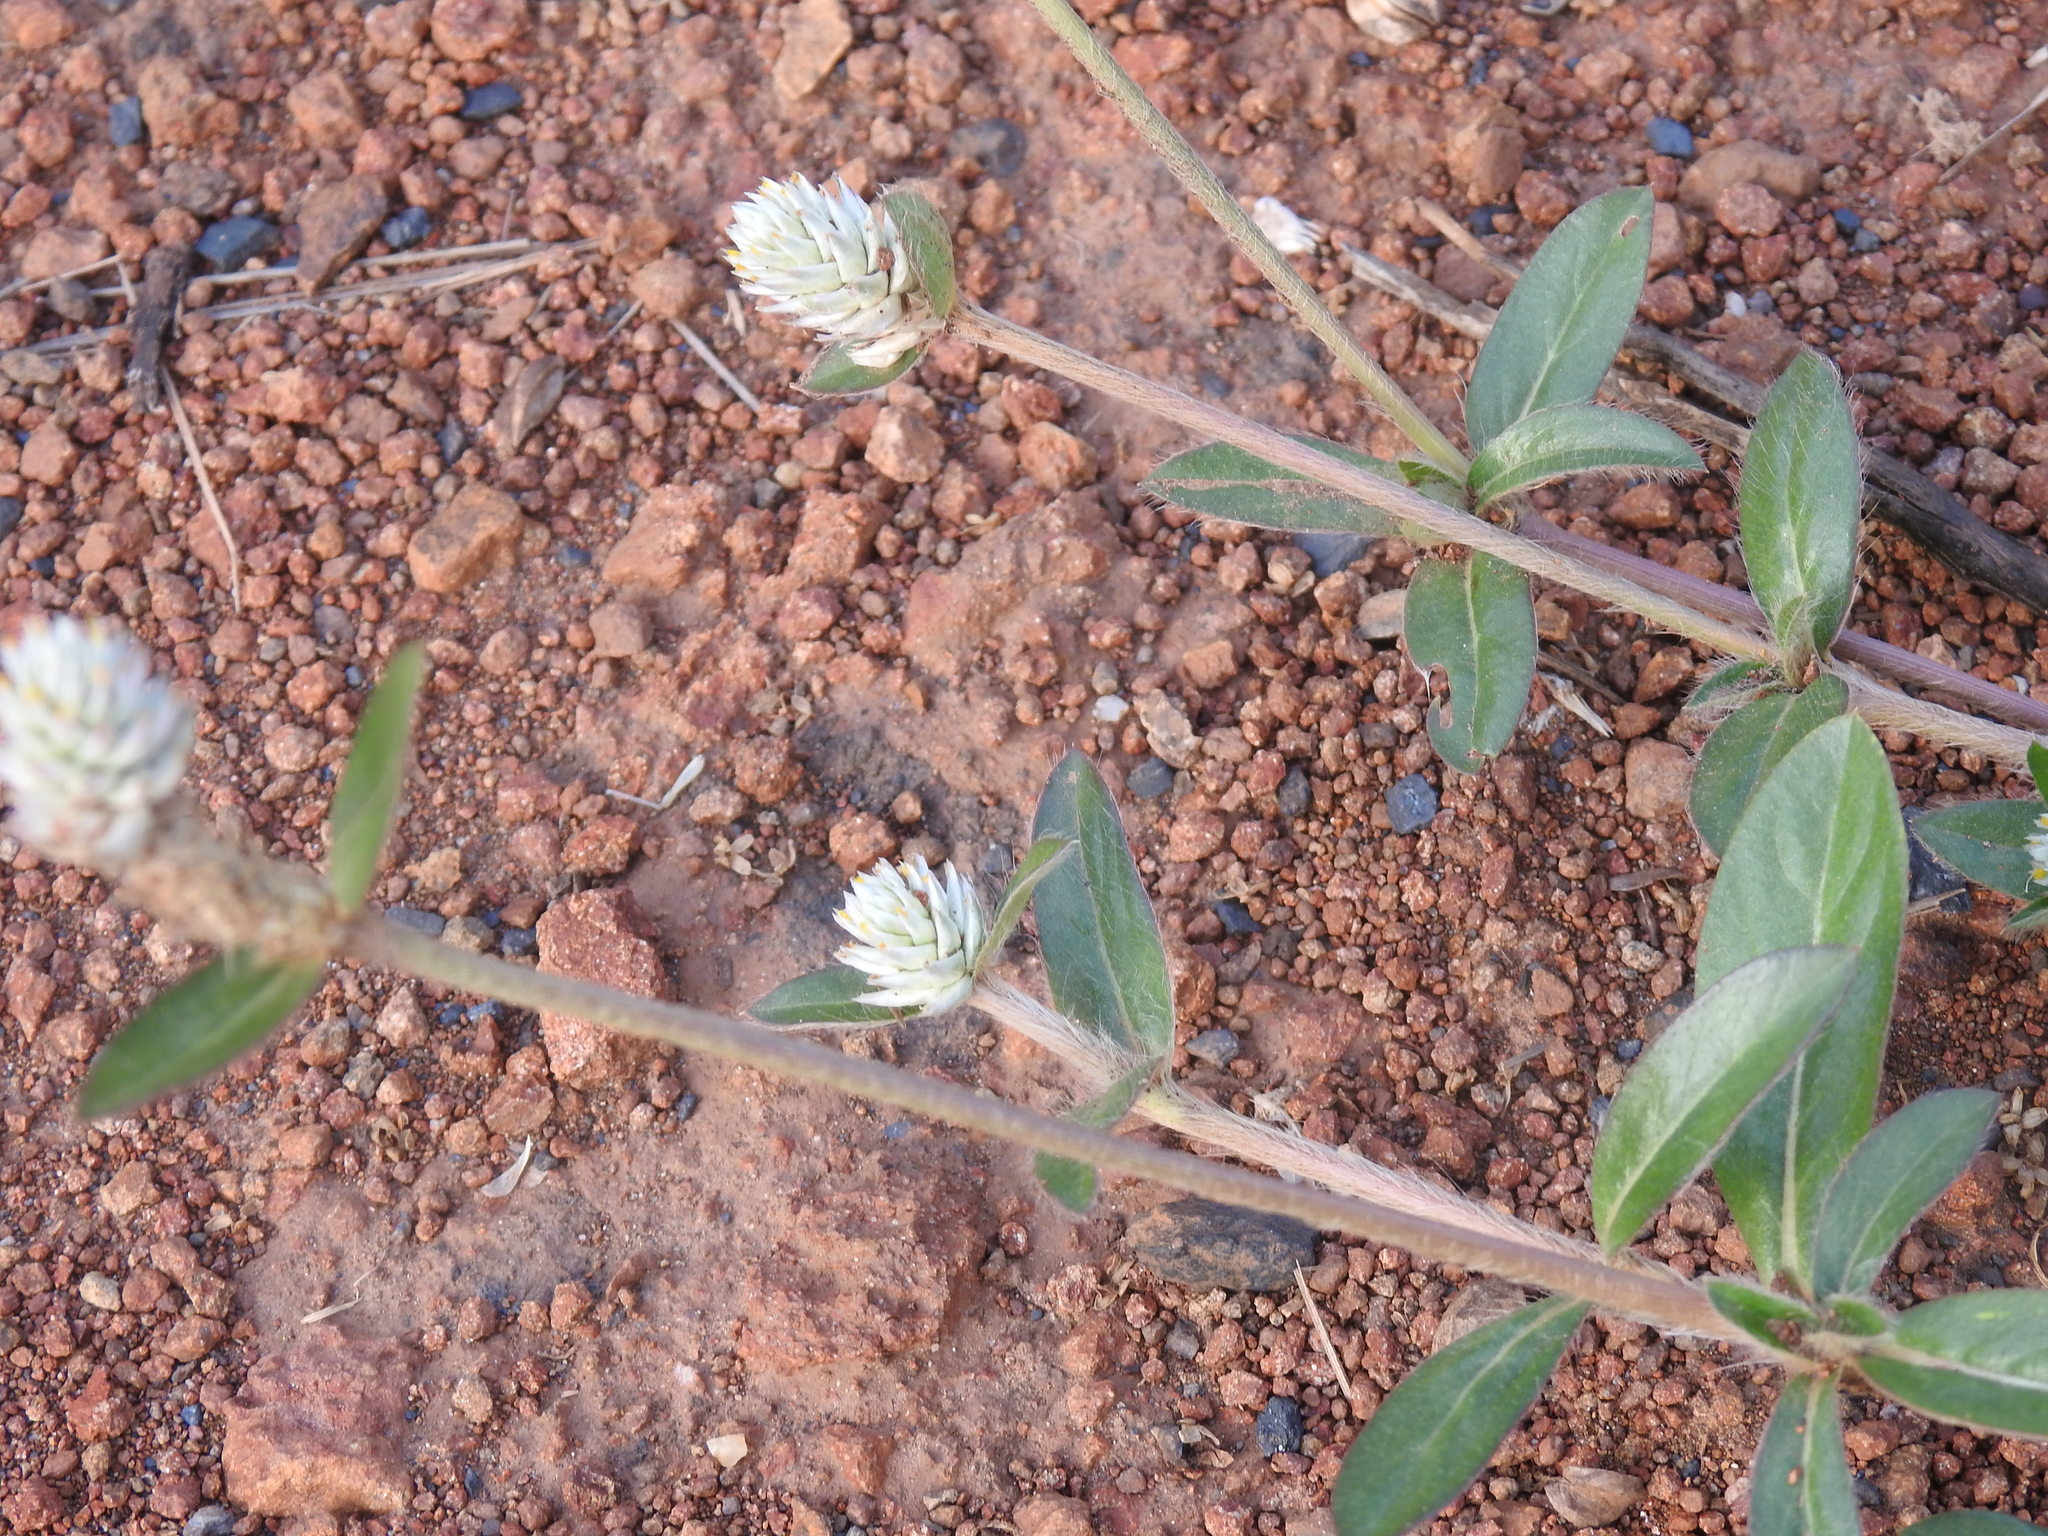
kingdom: Plantae
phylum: Tracheophyta
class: Magnoliopsida
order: Caryophyllales
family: Amaranthaceae
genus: Gomphrena
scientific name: Gomphrena celosioides
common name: Gomphrena-weed
